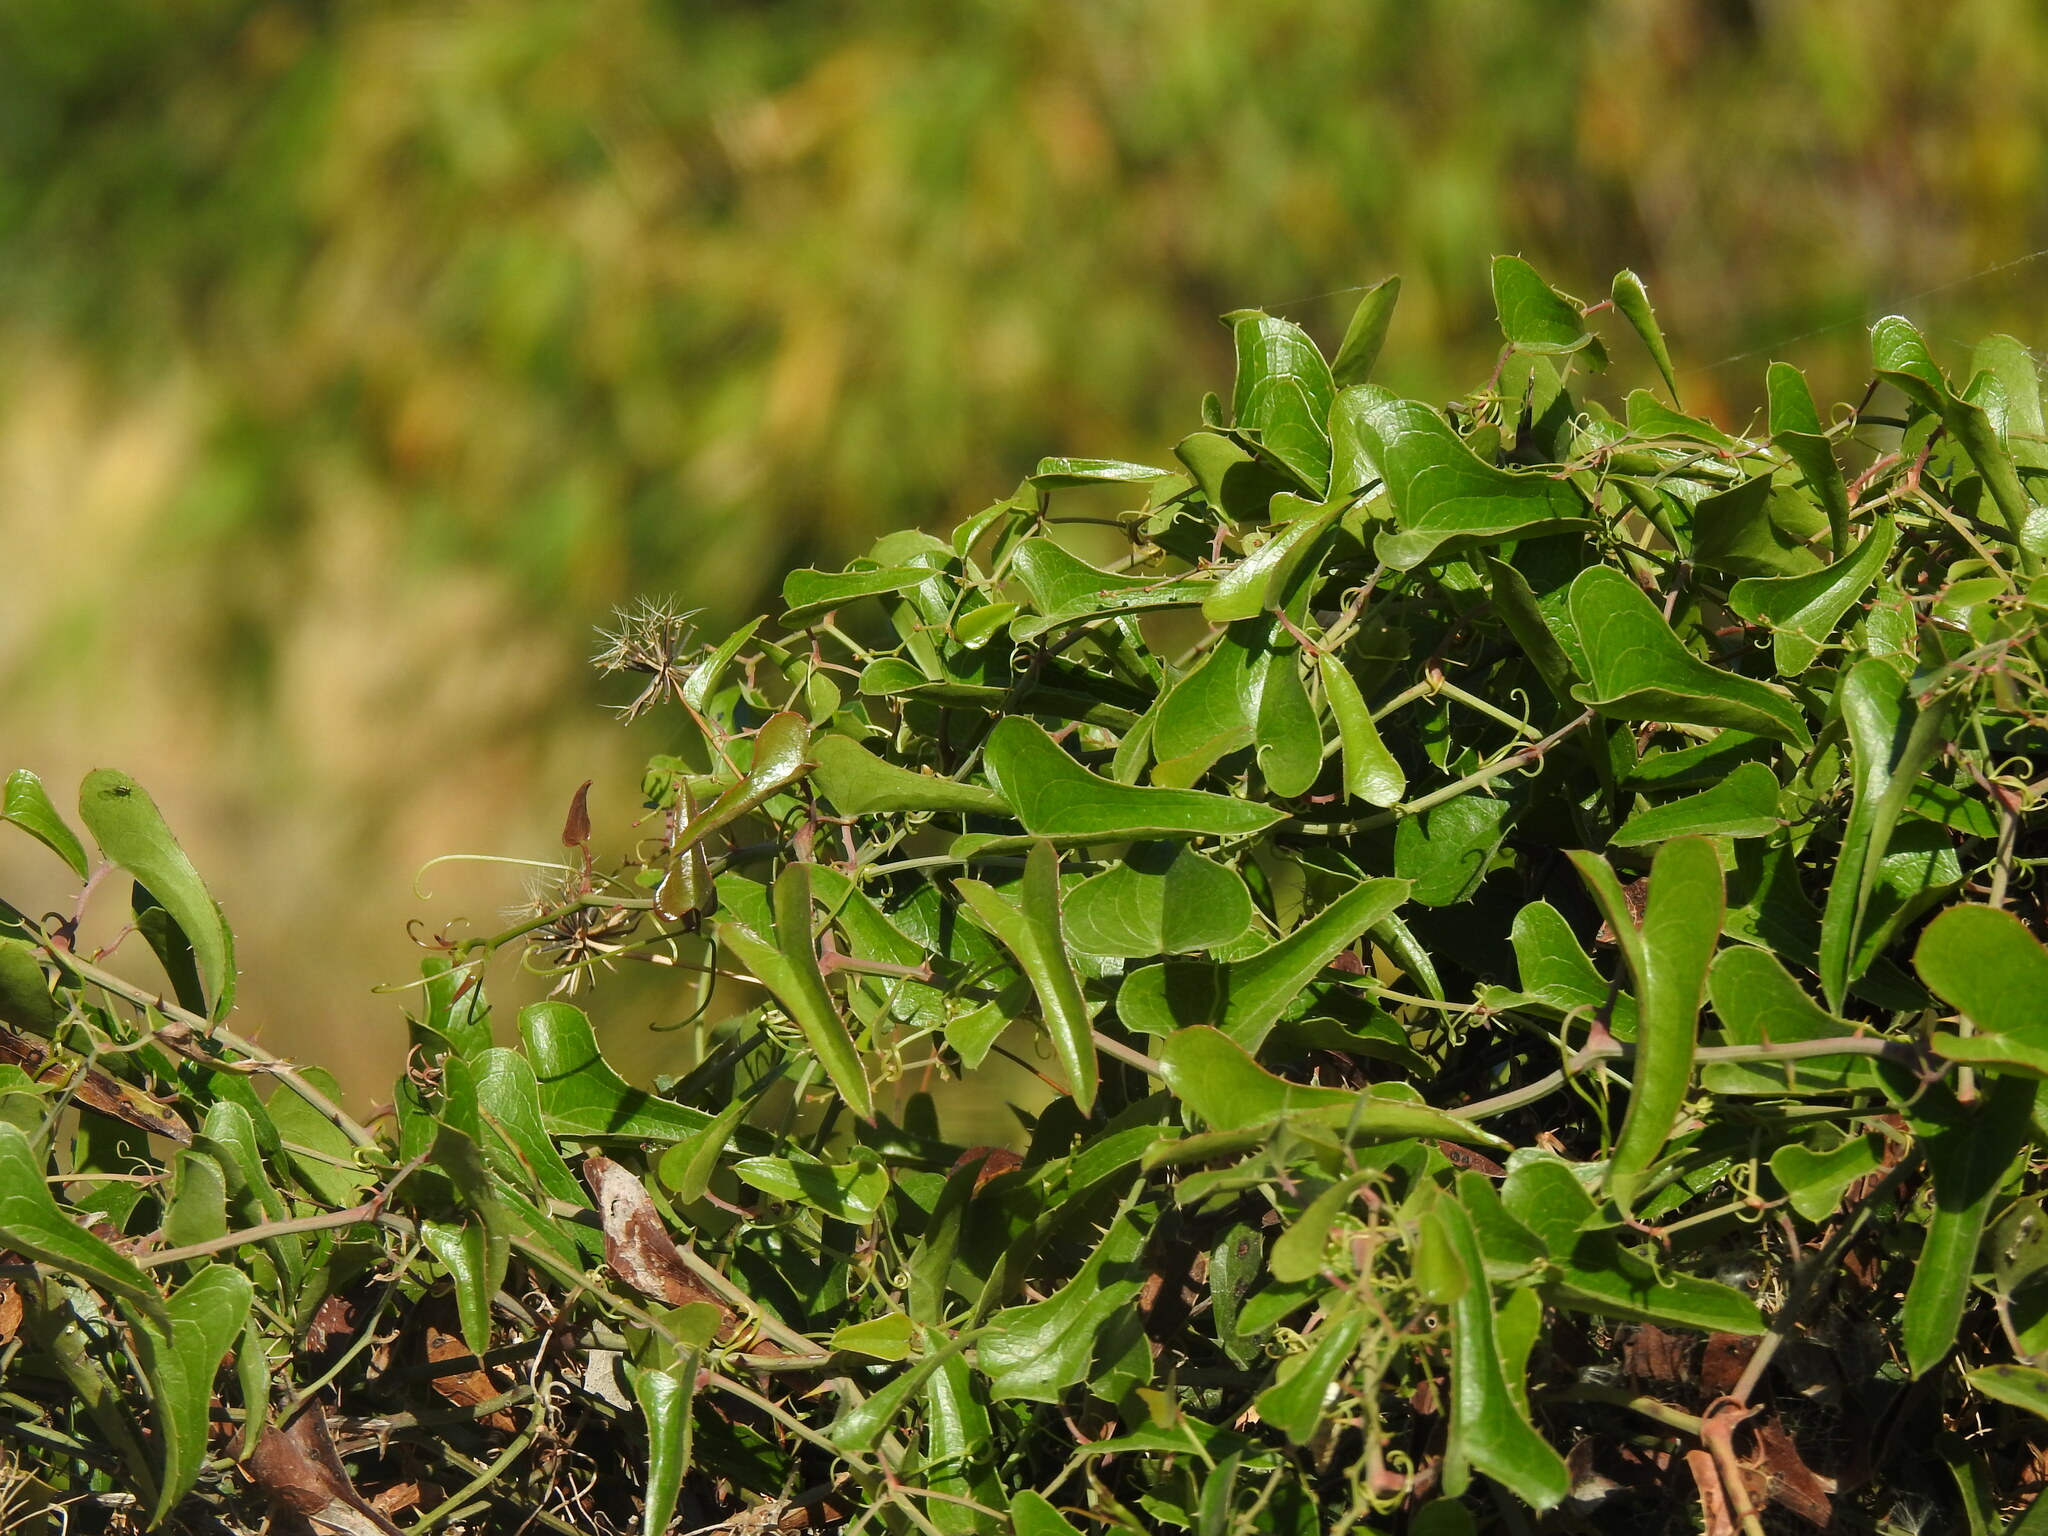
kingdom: Plantae
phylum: Tracheophyta
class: Liliopsida
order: Liliales
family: Smilacaceae
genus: Smilax
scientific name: Smilax aspera
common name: Common smilax
